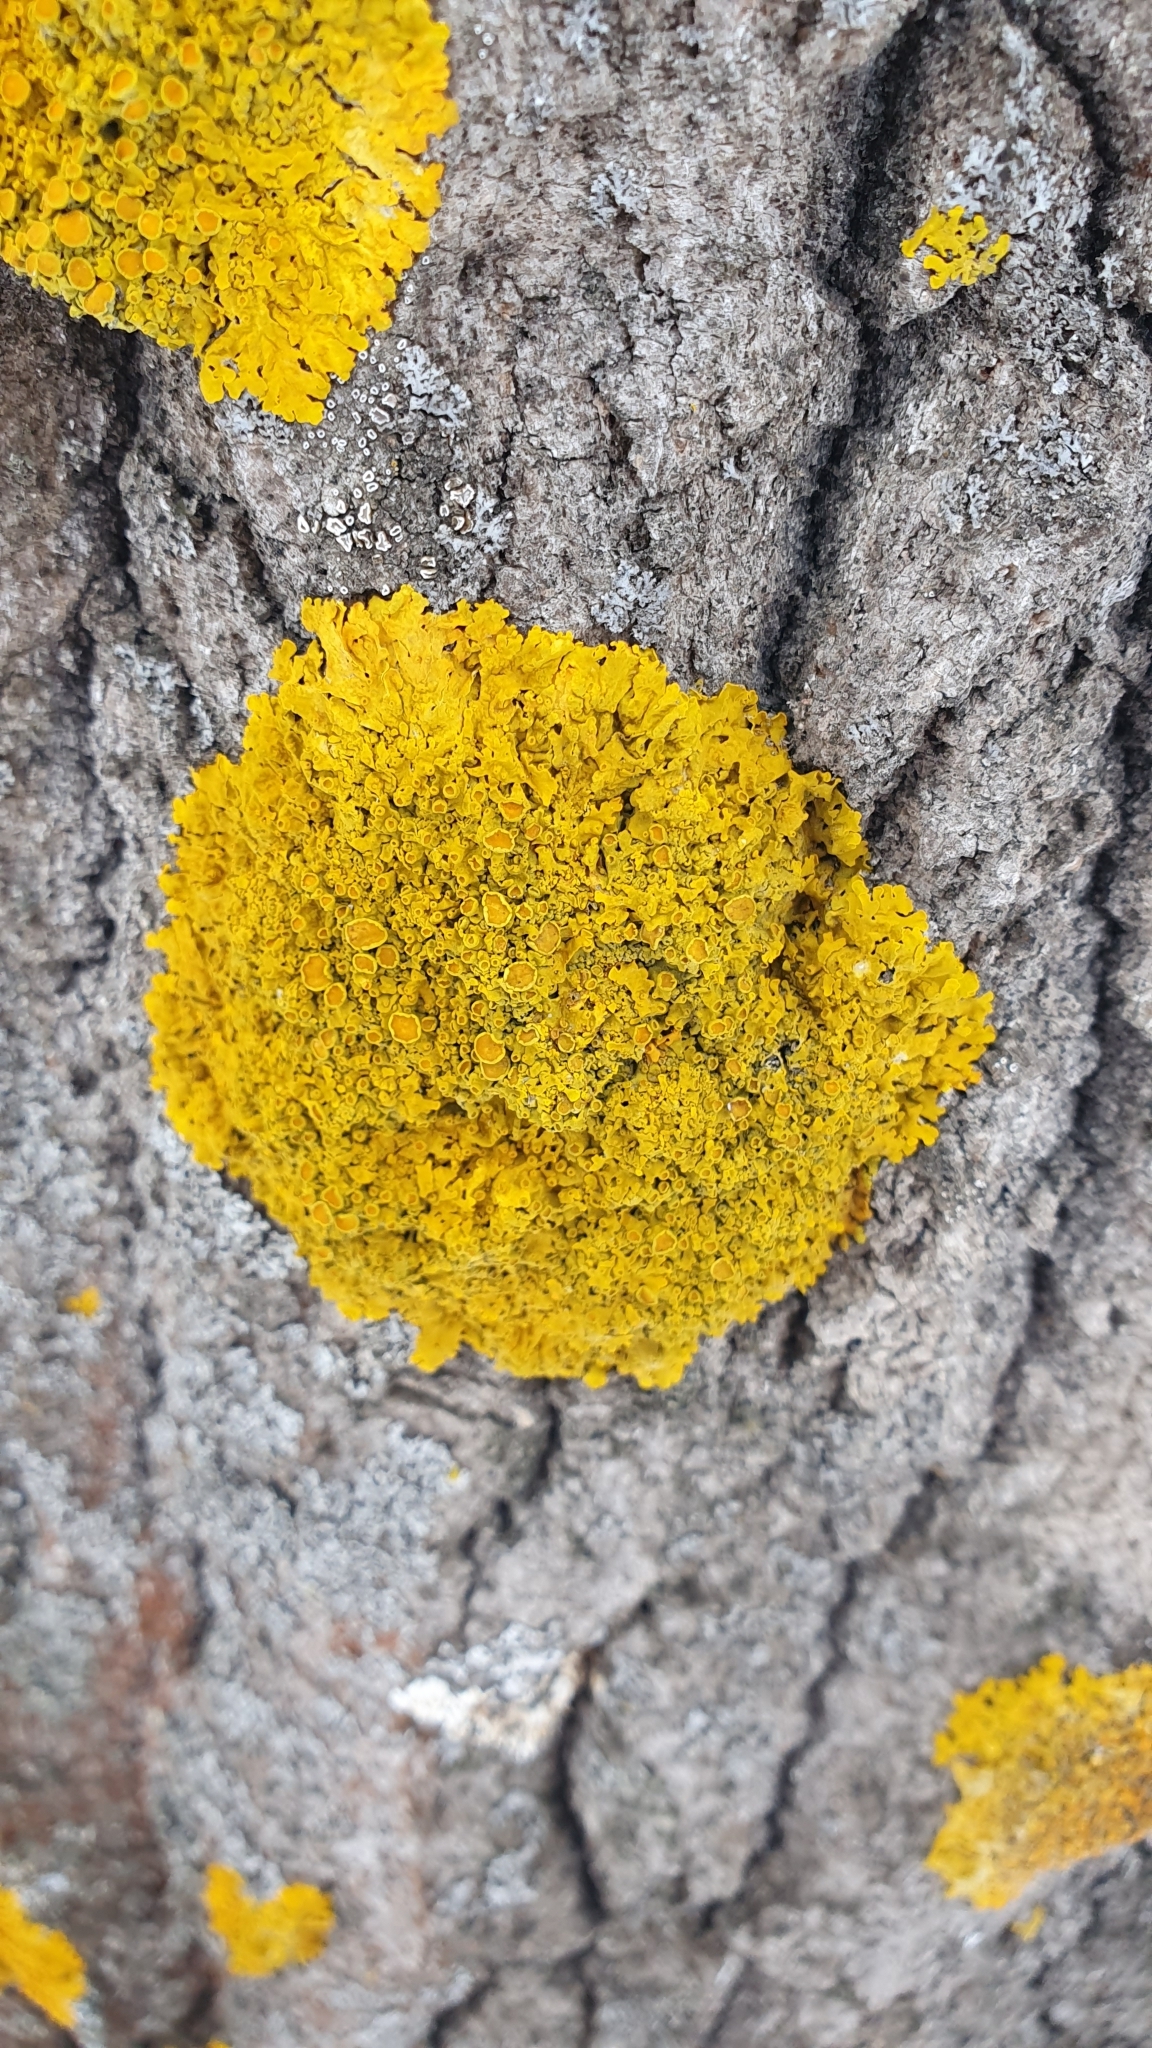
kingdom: Fungi
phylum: Ascomycota
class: Lecanoromycetes
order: Teloschistales
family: Teloschistaceae
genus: Xanthoria
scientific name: Xanthoria parietina
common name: Common orange lichen
